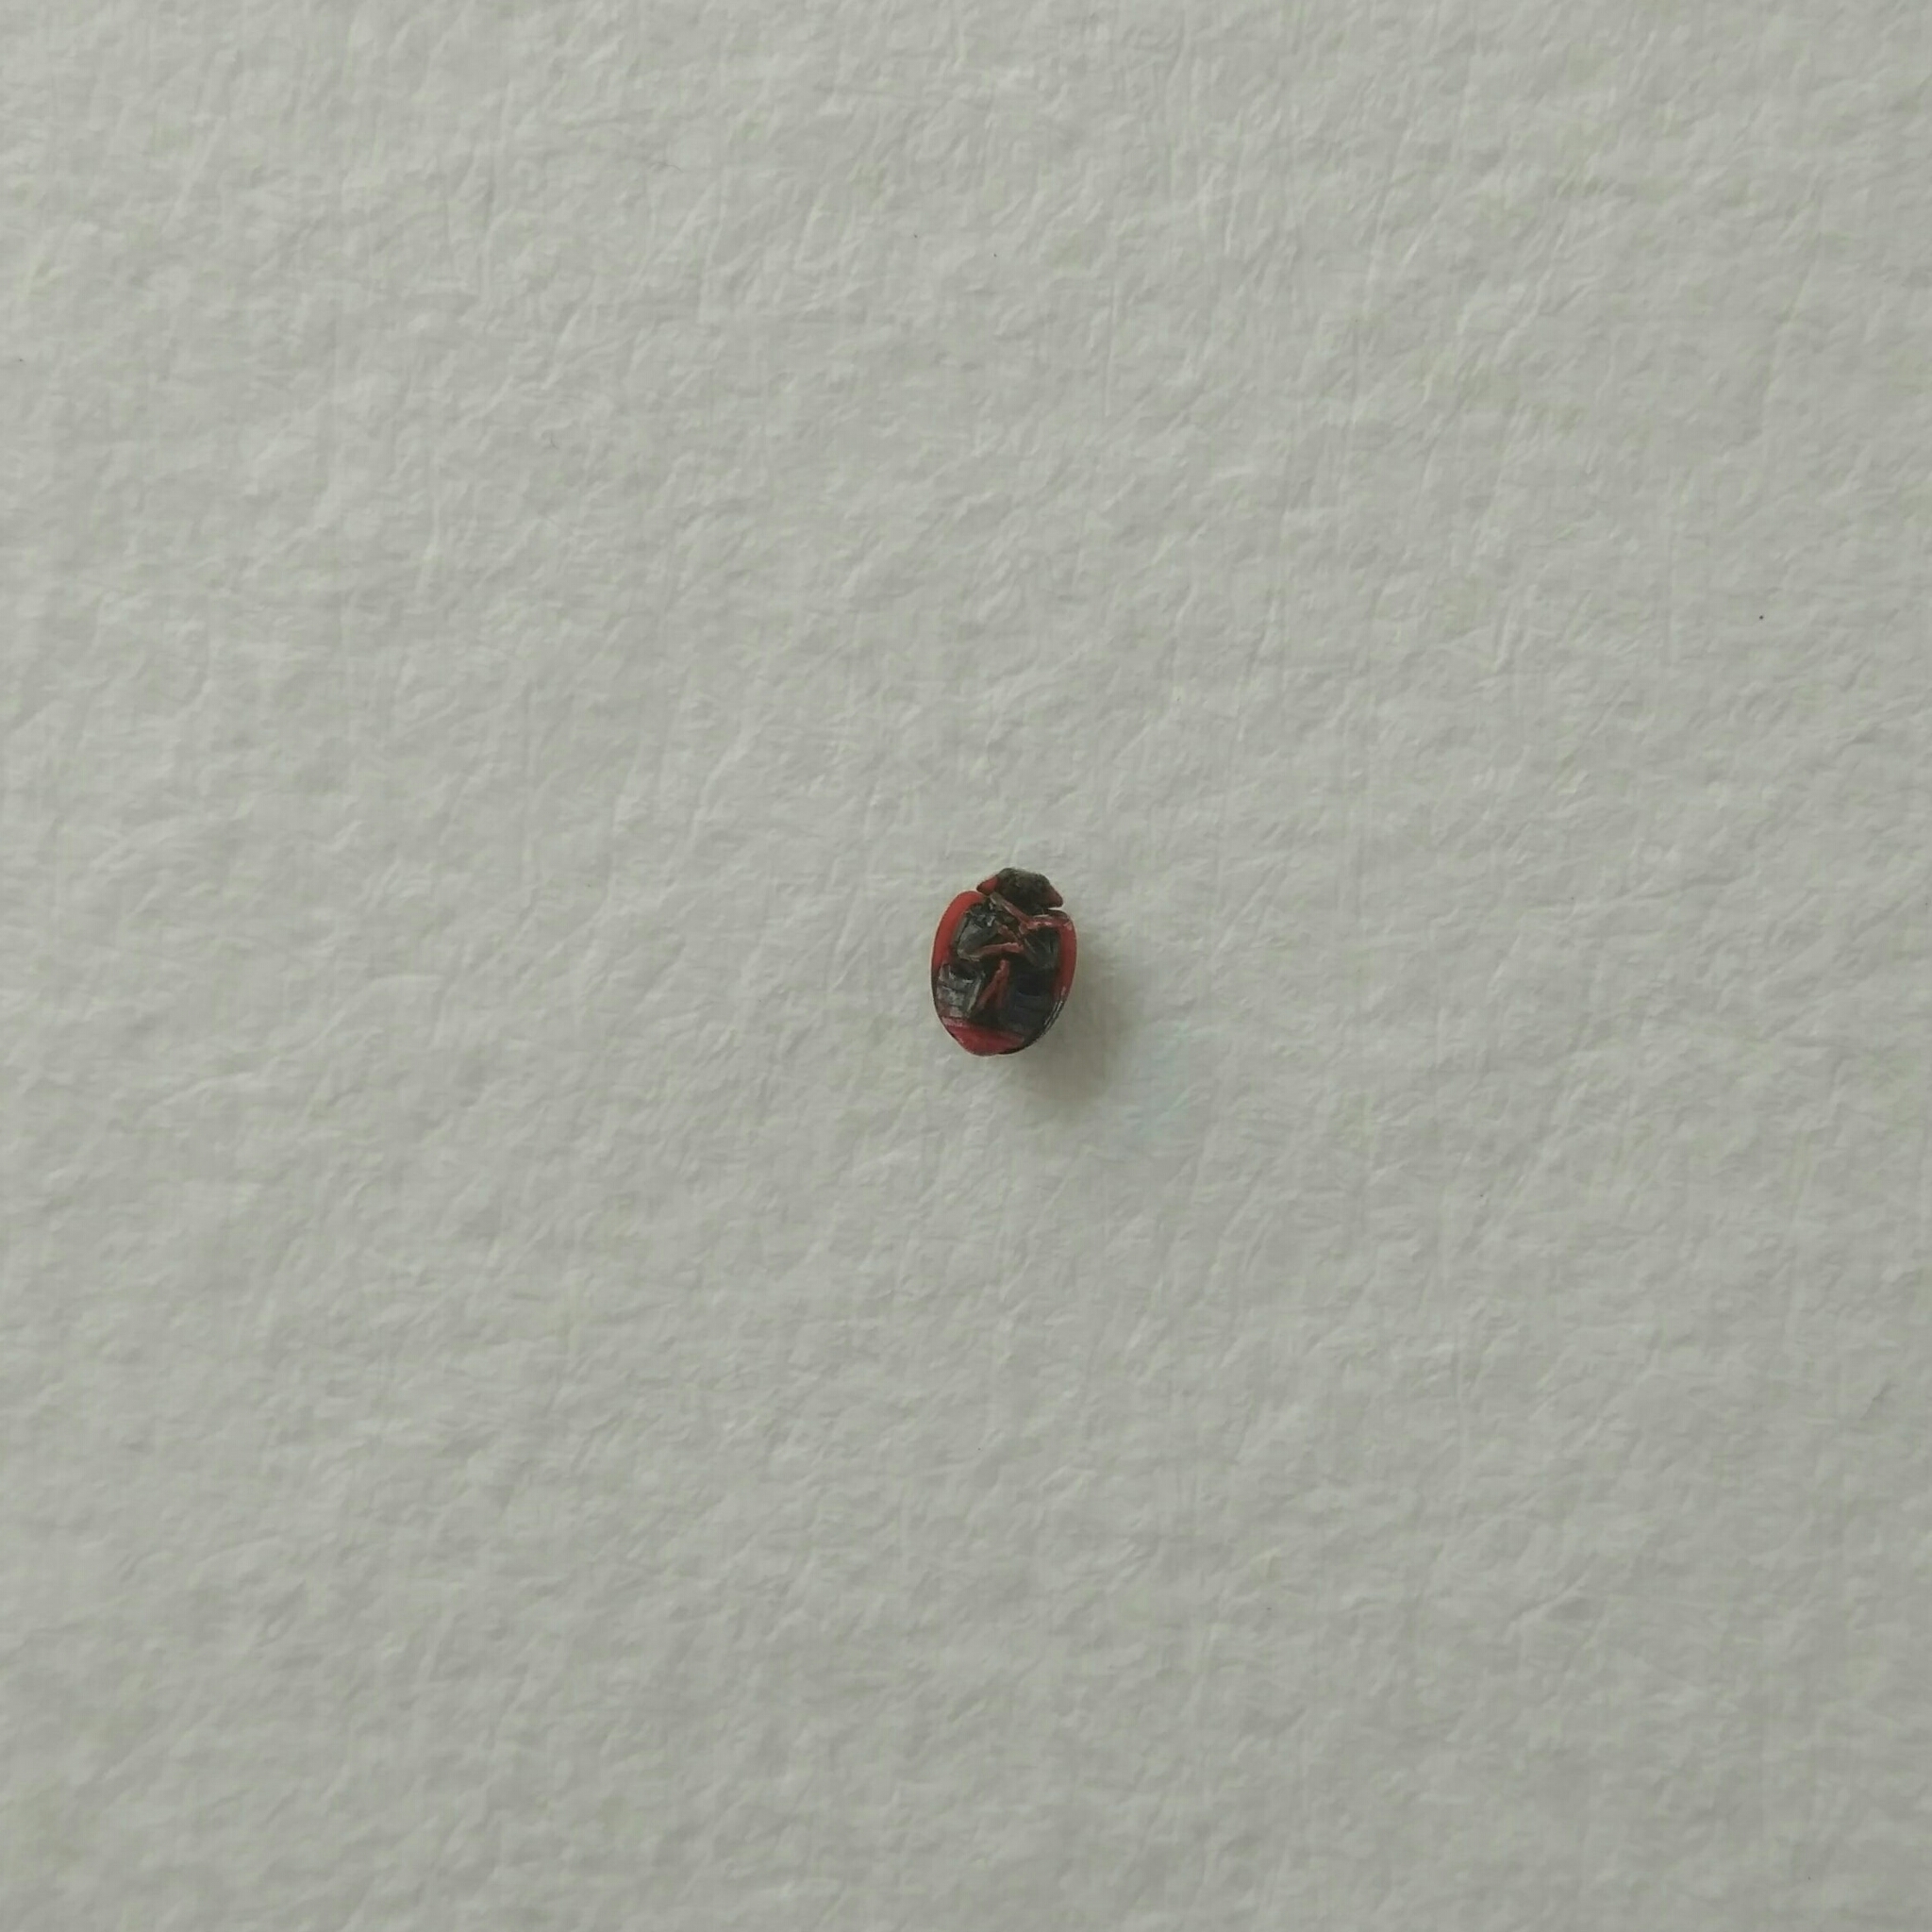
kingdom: Animalia
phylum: Arthropoda
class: Insecta
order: Coleoptera
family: Coccinellidae
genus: Novius
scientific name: Novius cardinalis
